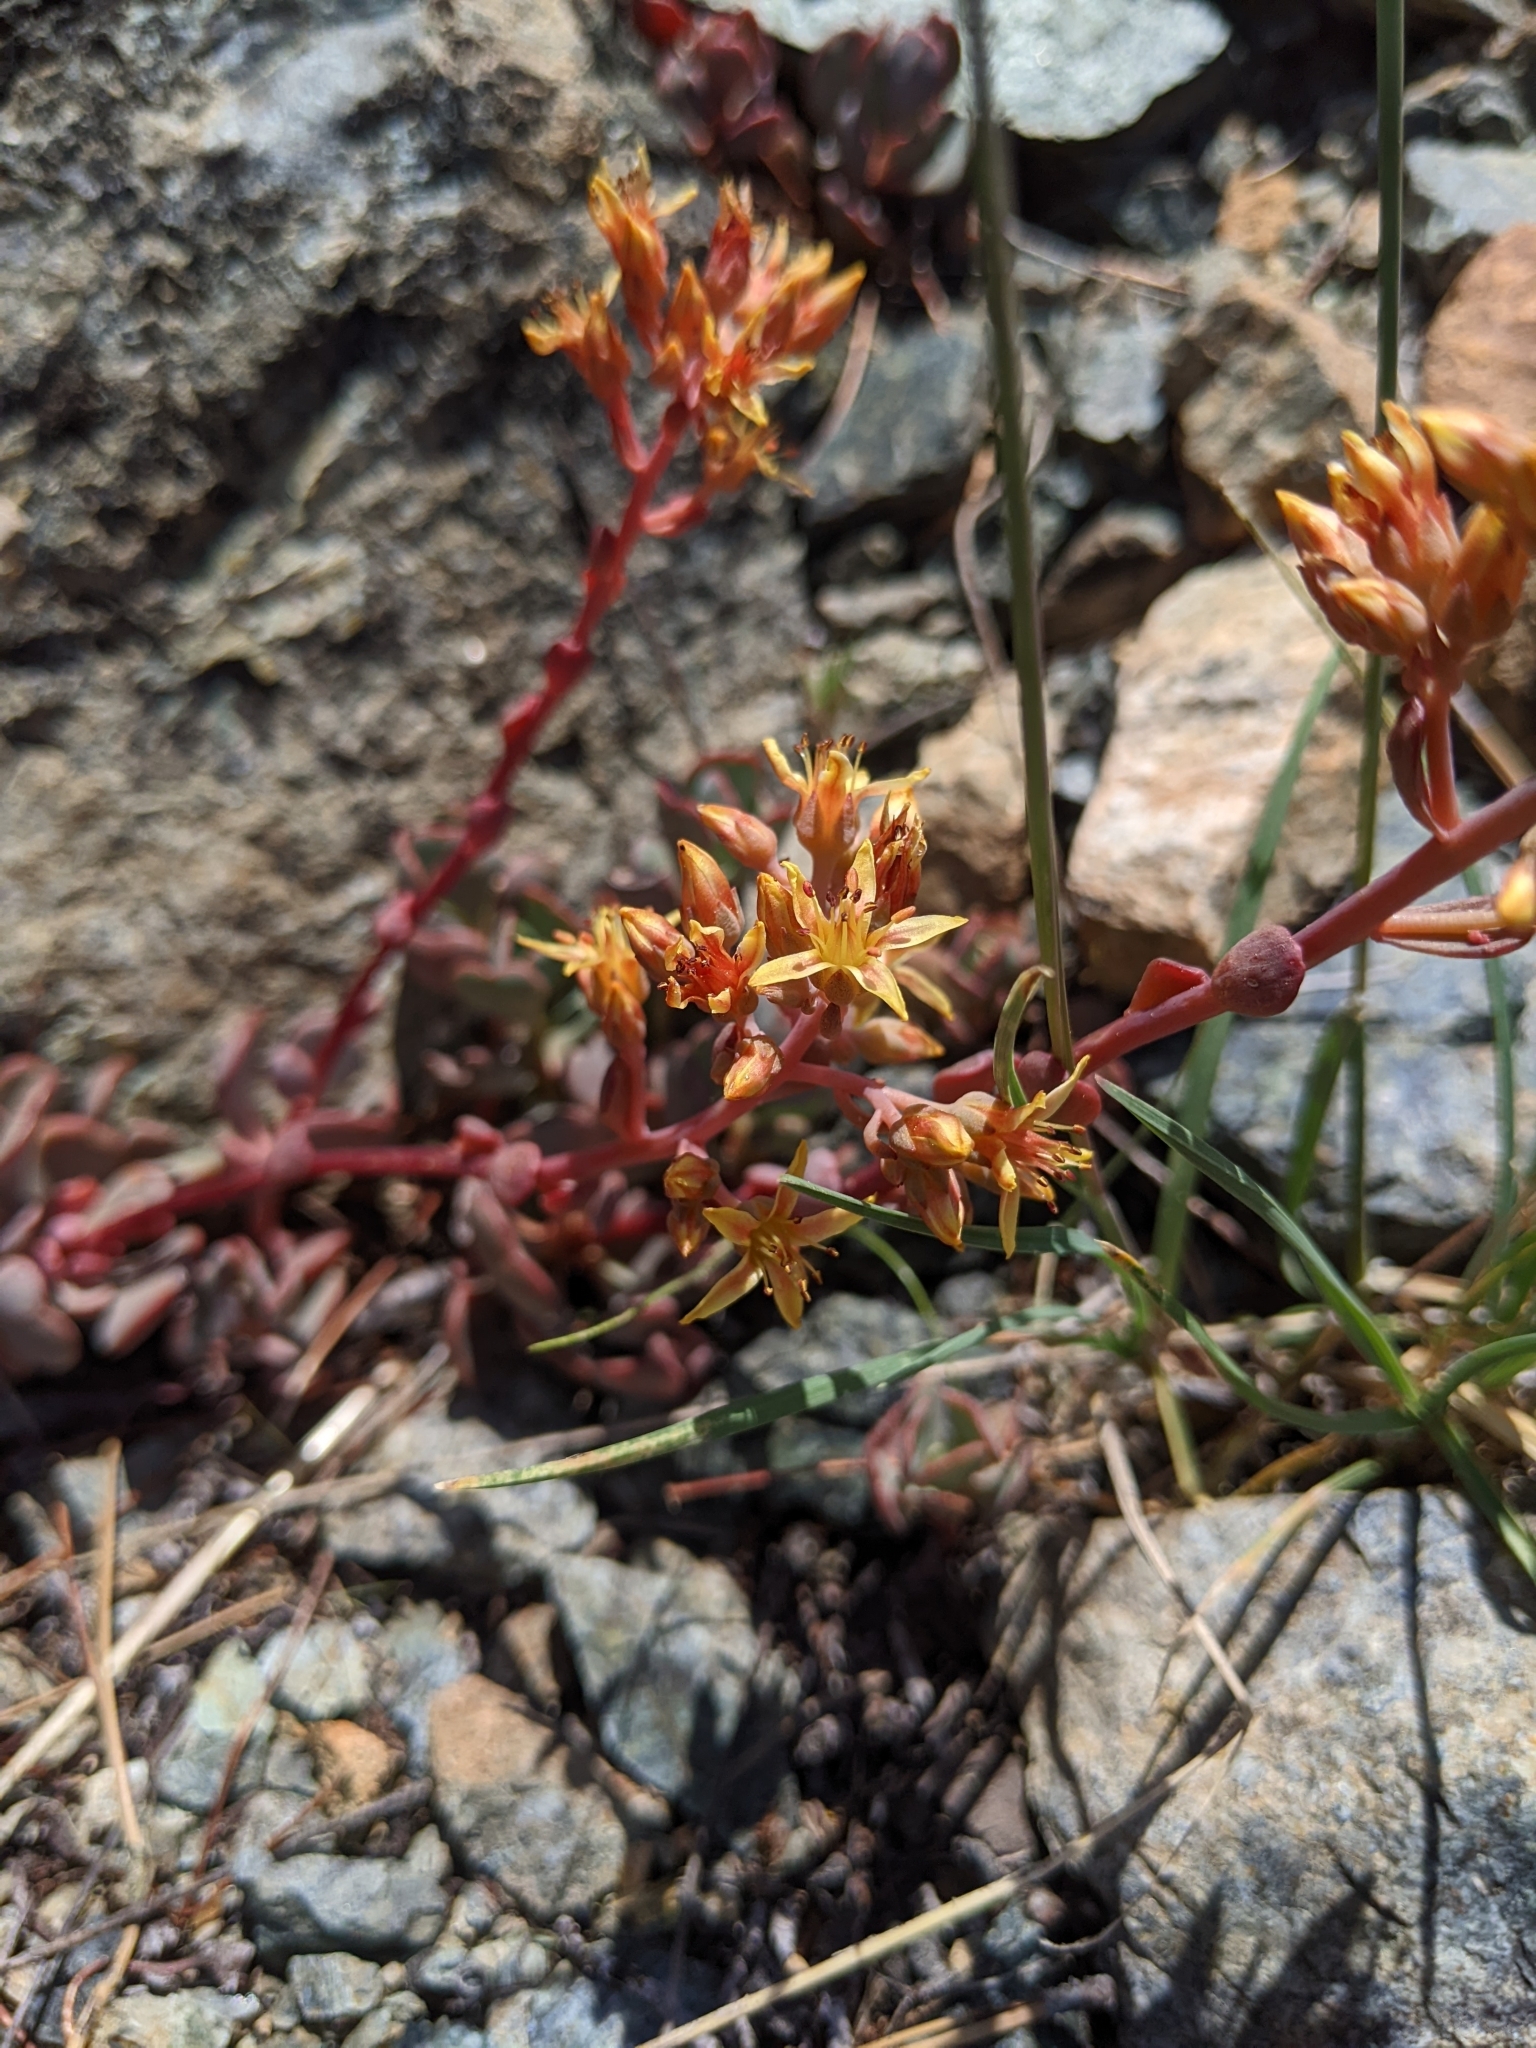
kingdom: Plantae
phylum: Tracheophyta
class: Magnoliopsida
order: Saxifragales
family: Crassulaceae
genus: Sedum
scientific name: Sedum obtusatum
